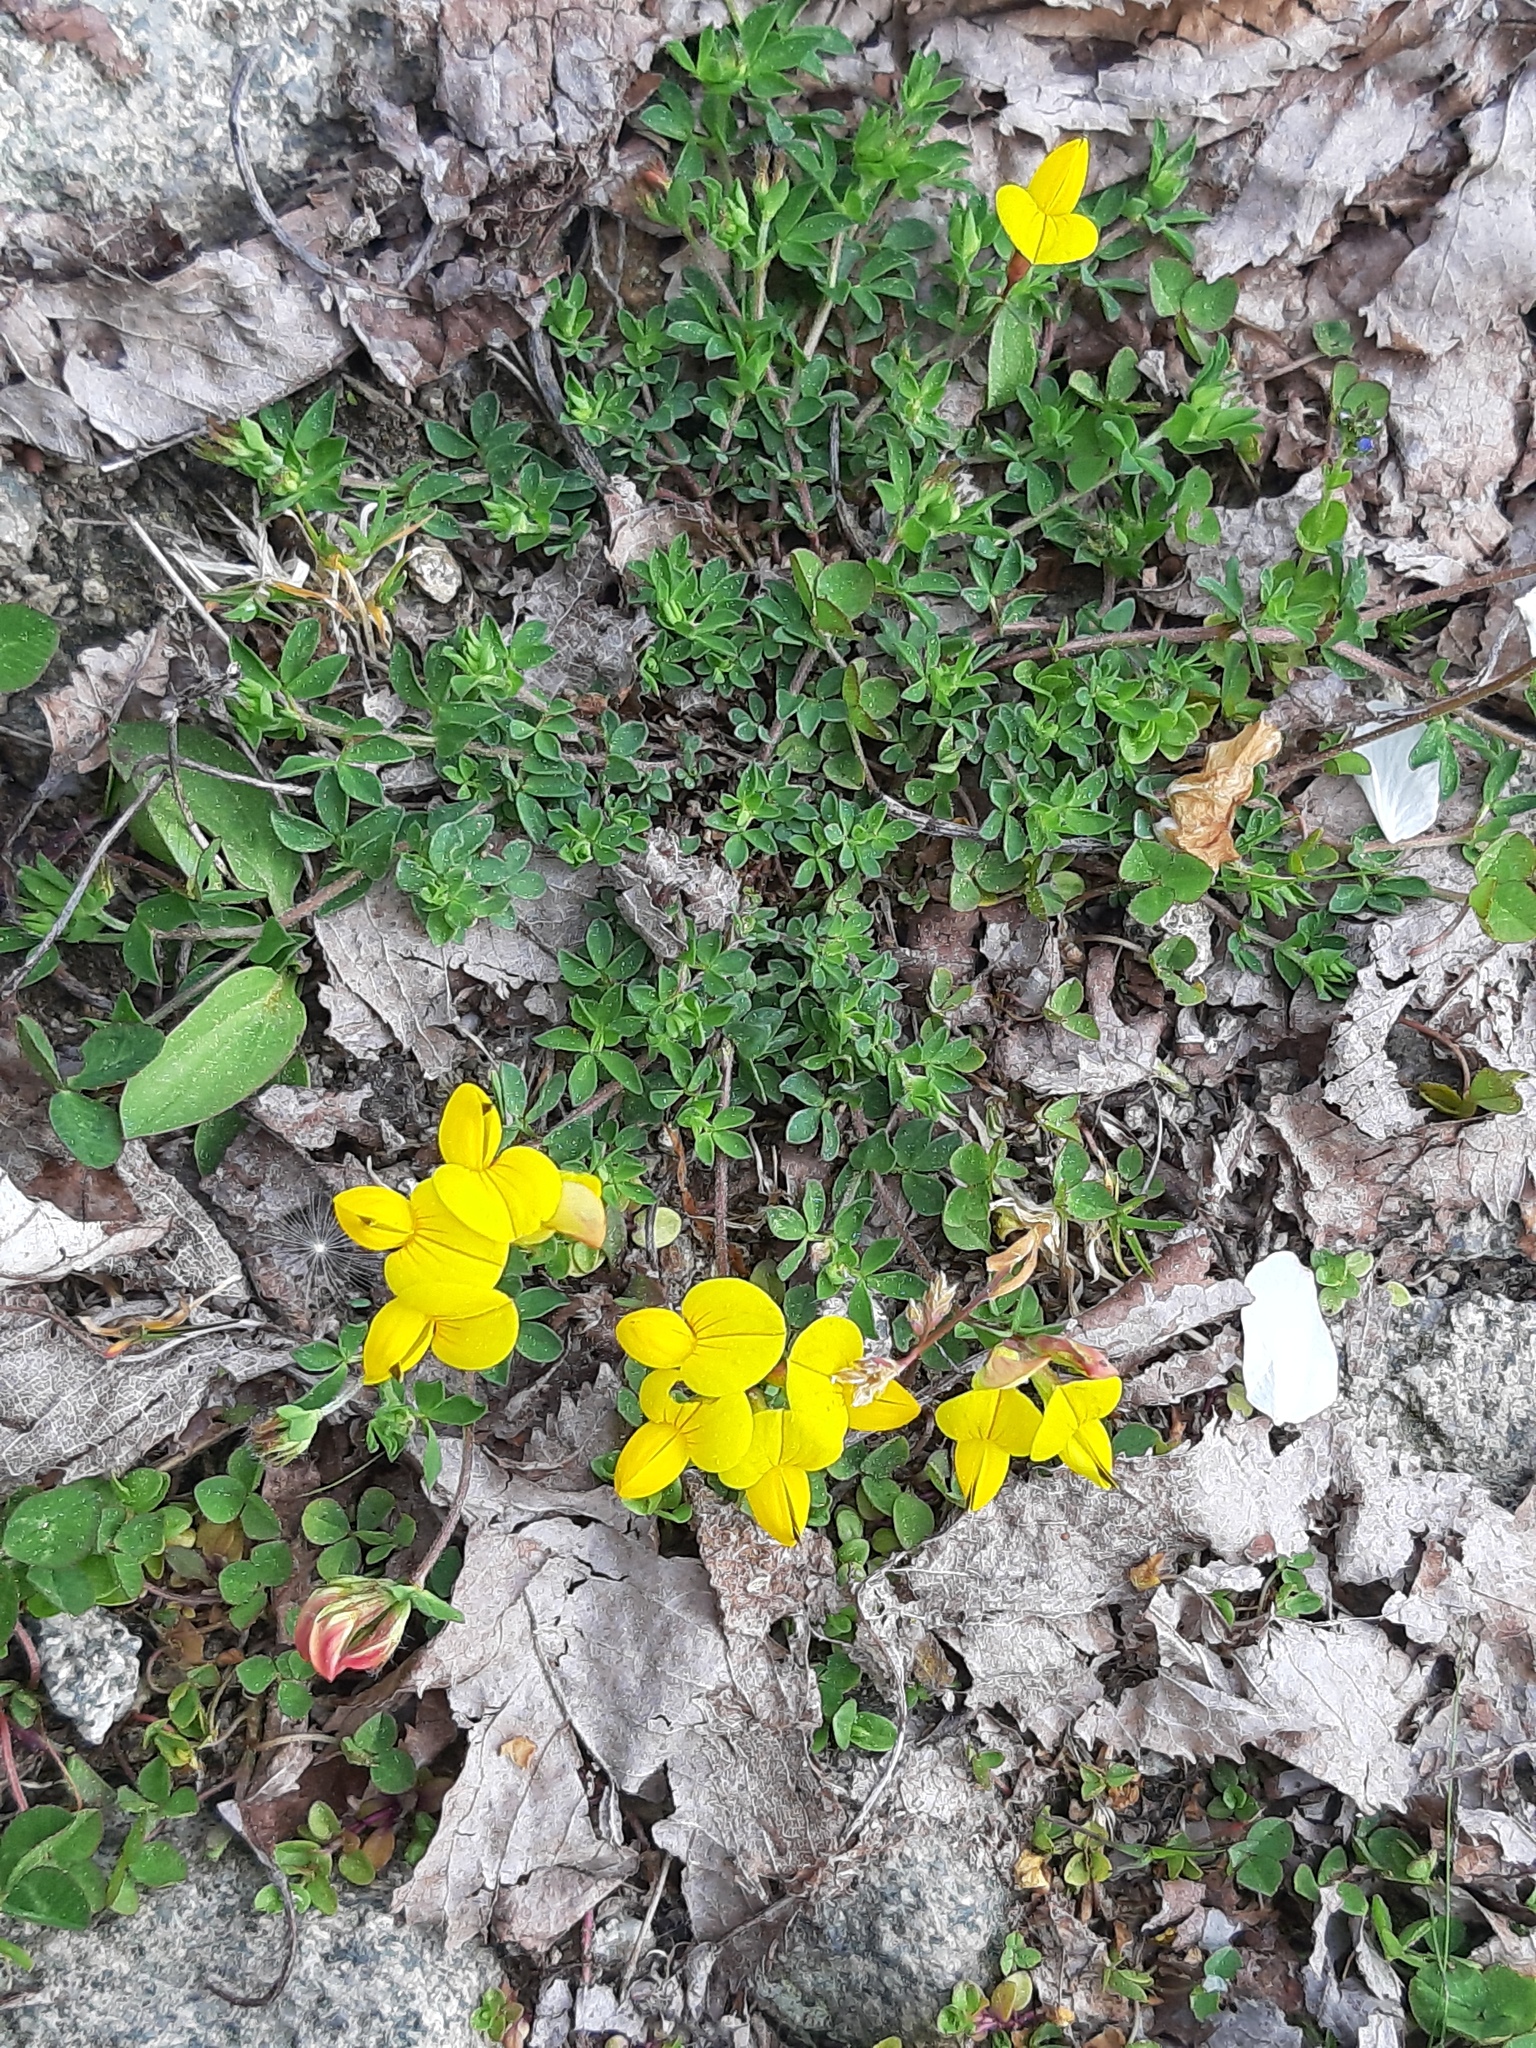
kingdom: Plantae
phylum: Tracheophyta
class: Magnoliopsida
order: Fabales
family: Fabaceae
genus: Lotus
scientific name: Lotus corniculatus
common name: Common bird's-foot-trefoil
